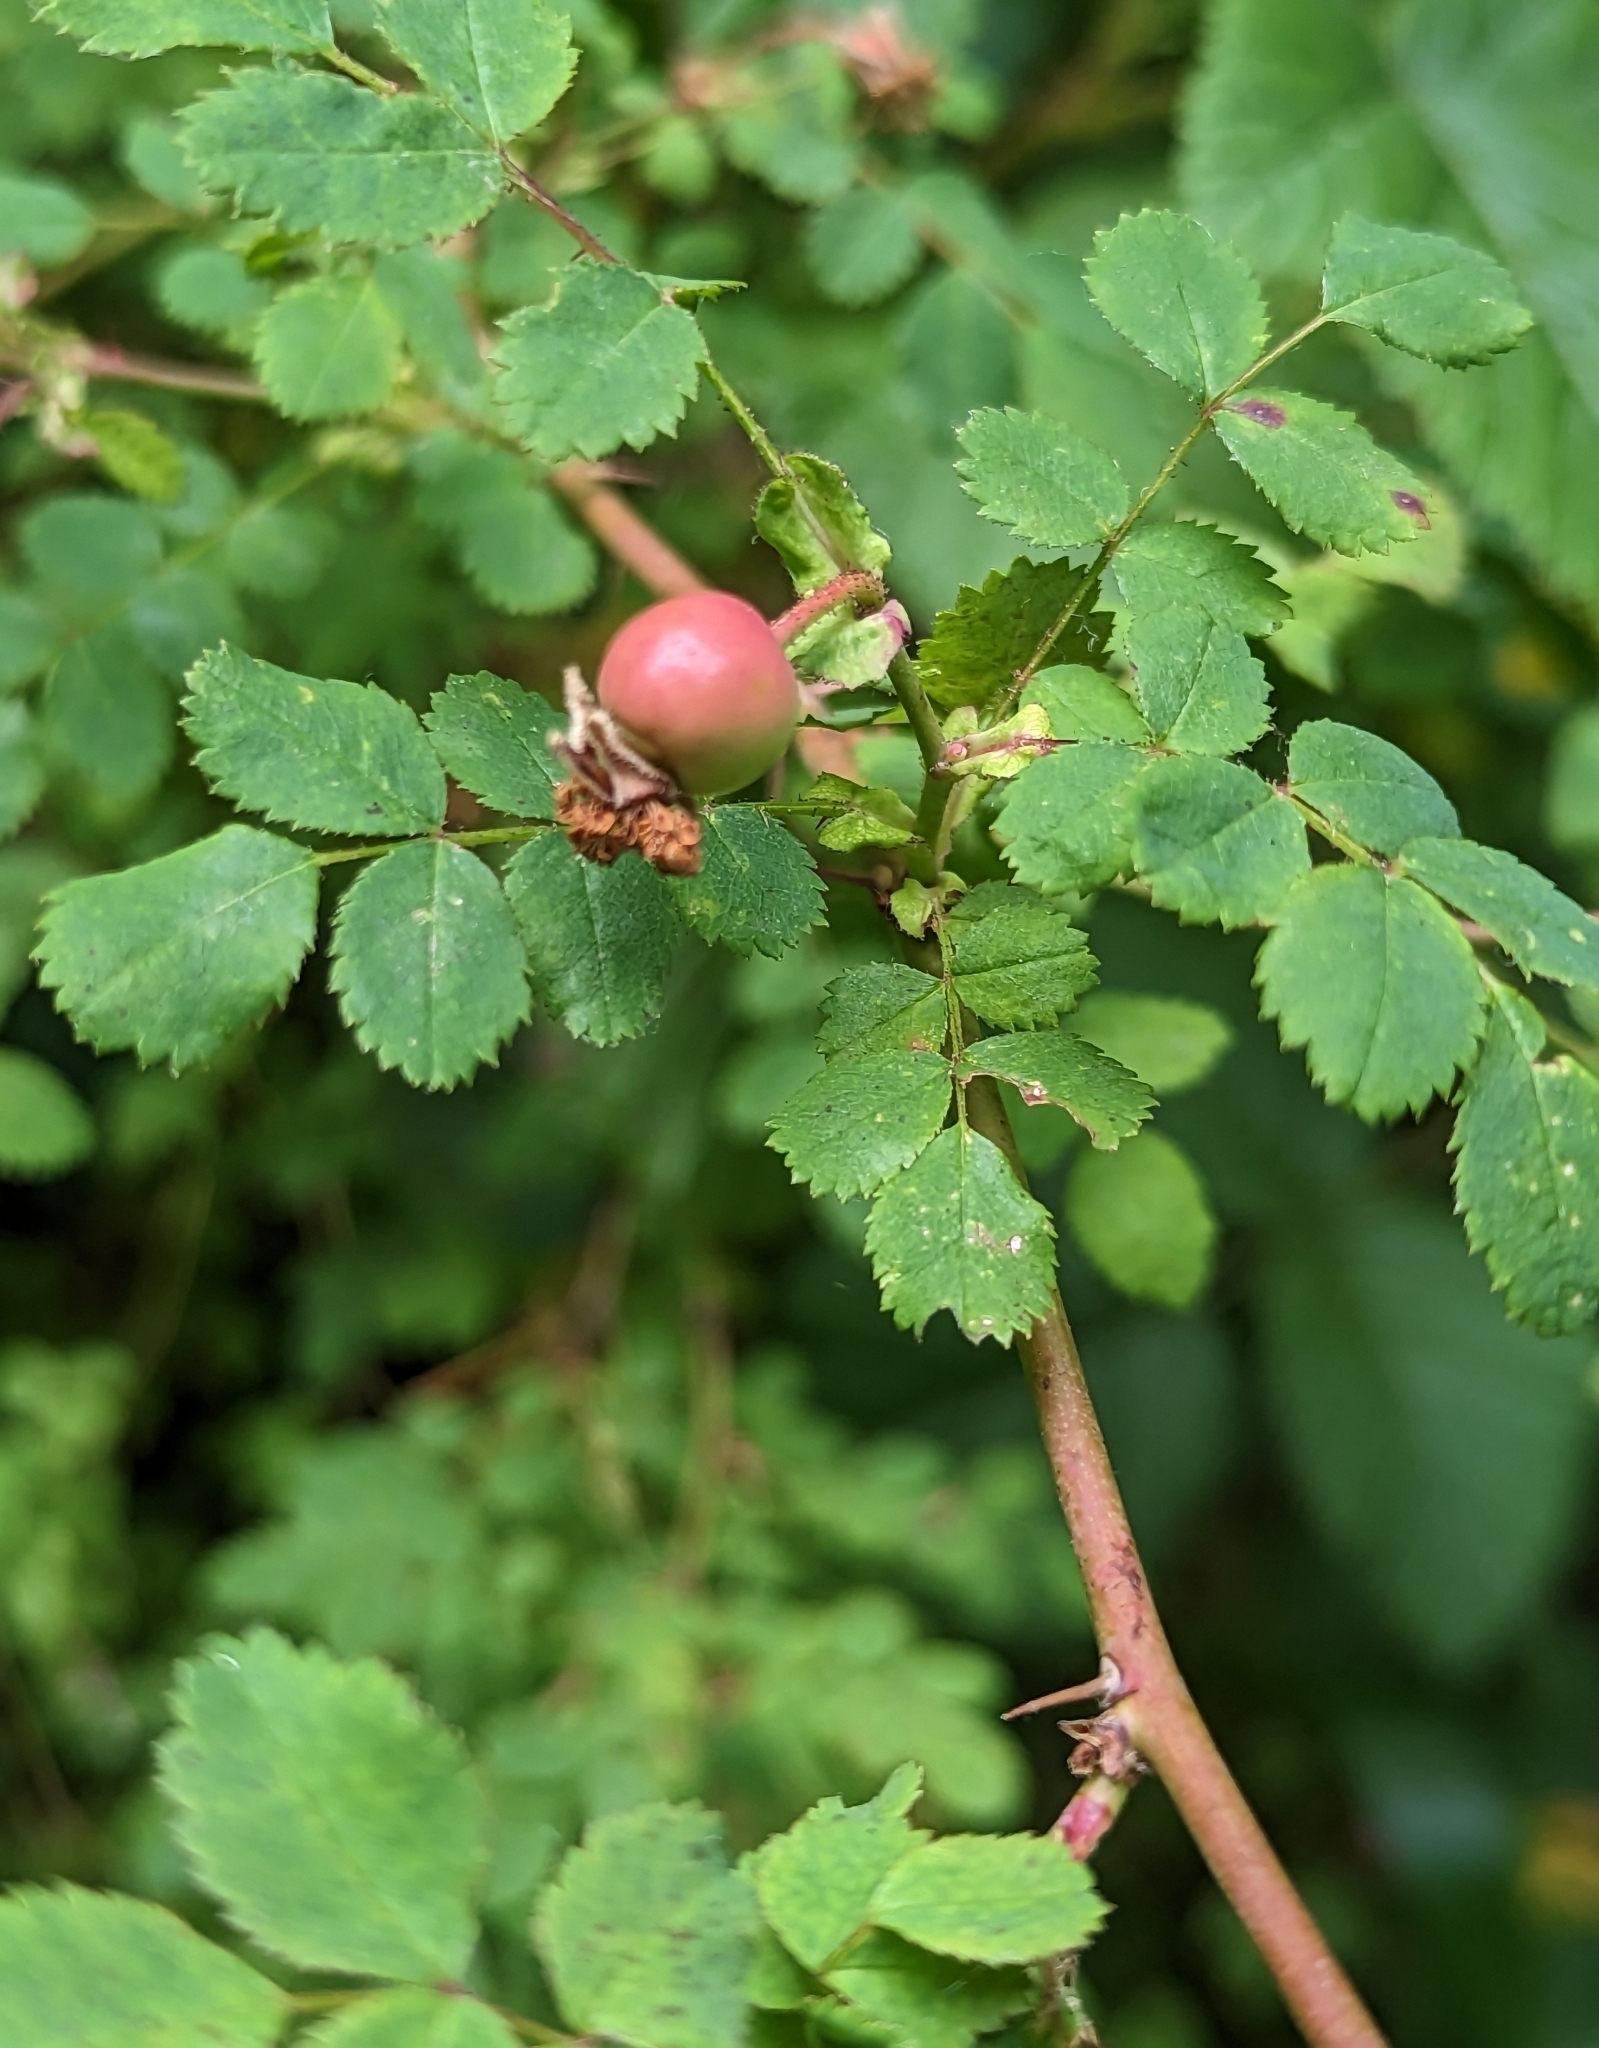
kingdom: Plantae
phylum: Tracheophyta
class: Magnoliopsida
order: Rosales
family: Rosaceae
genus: Rosa
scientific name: Rosa gymnocarpa
